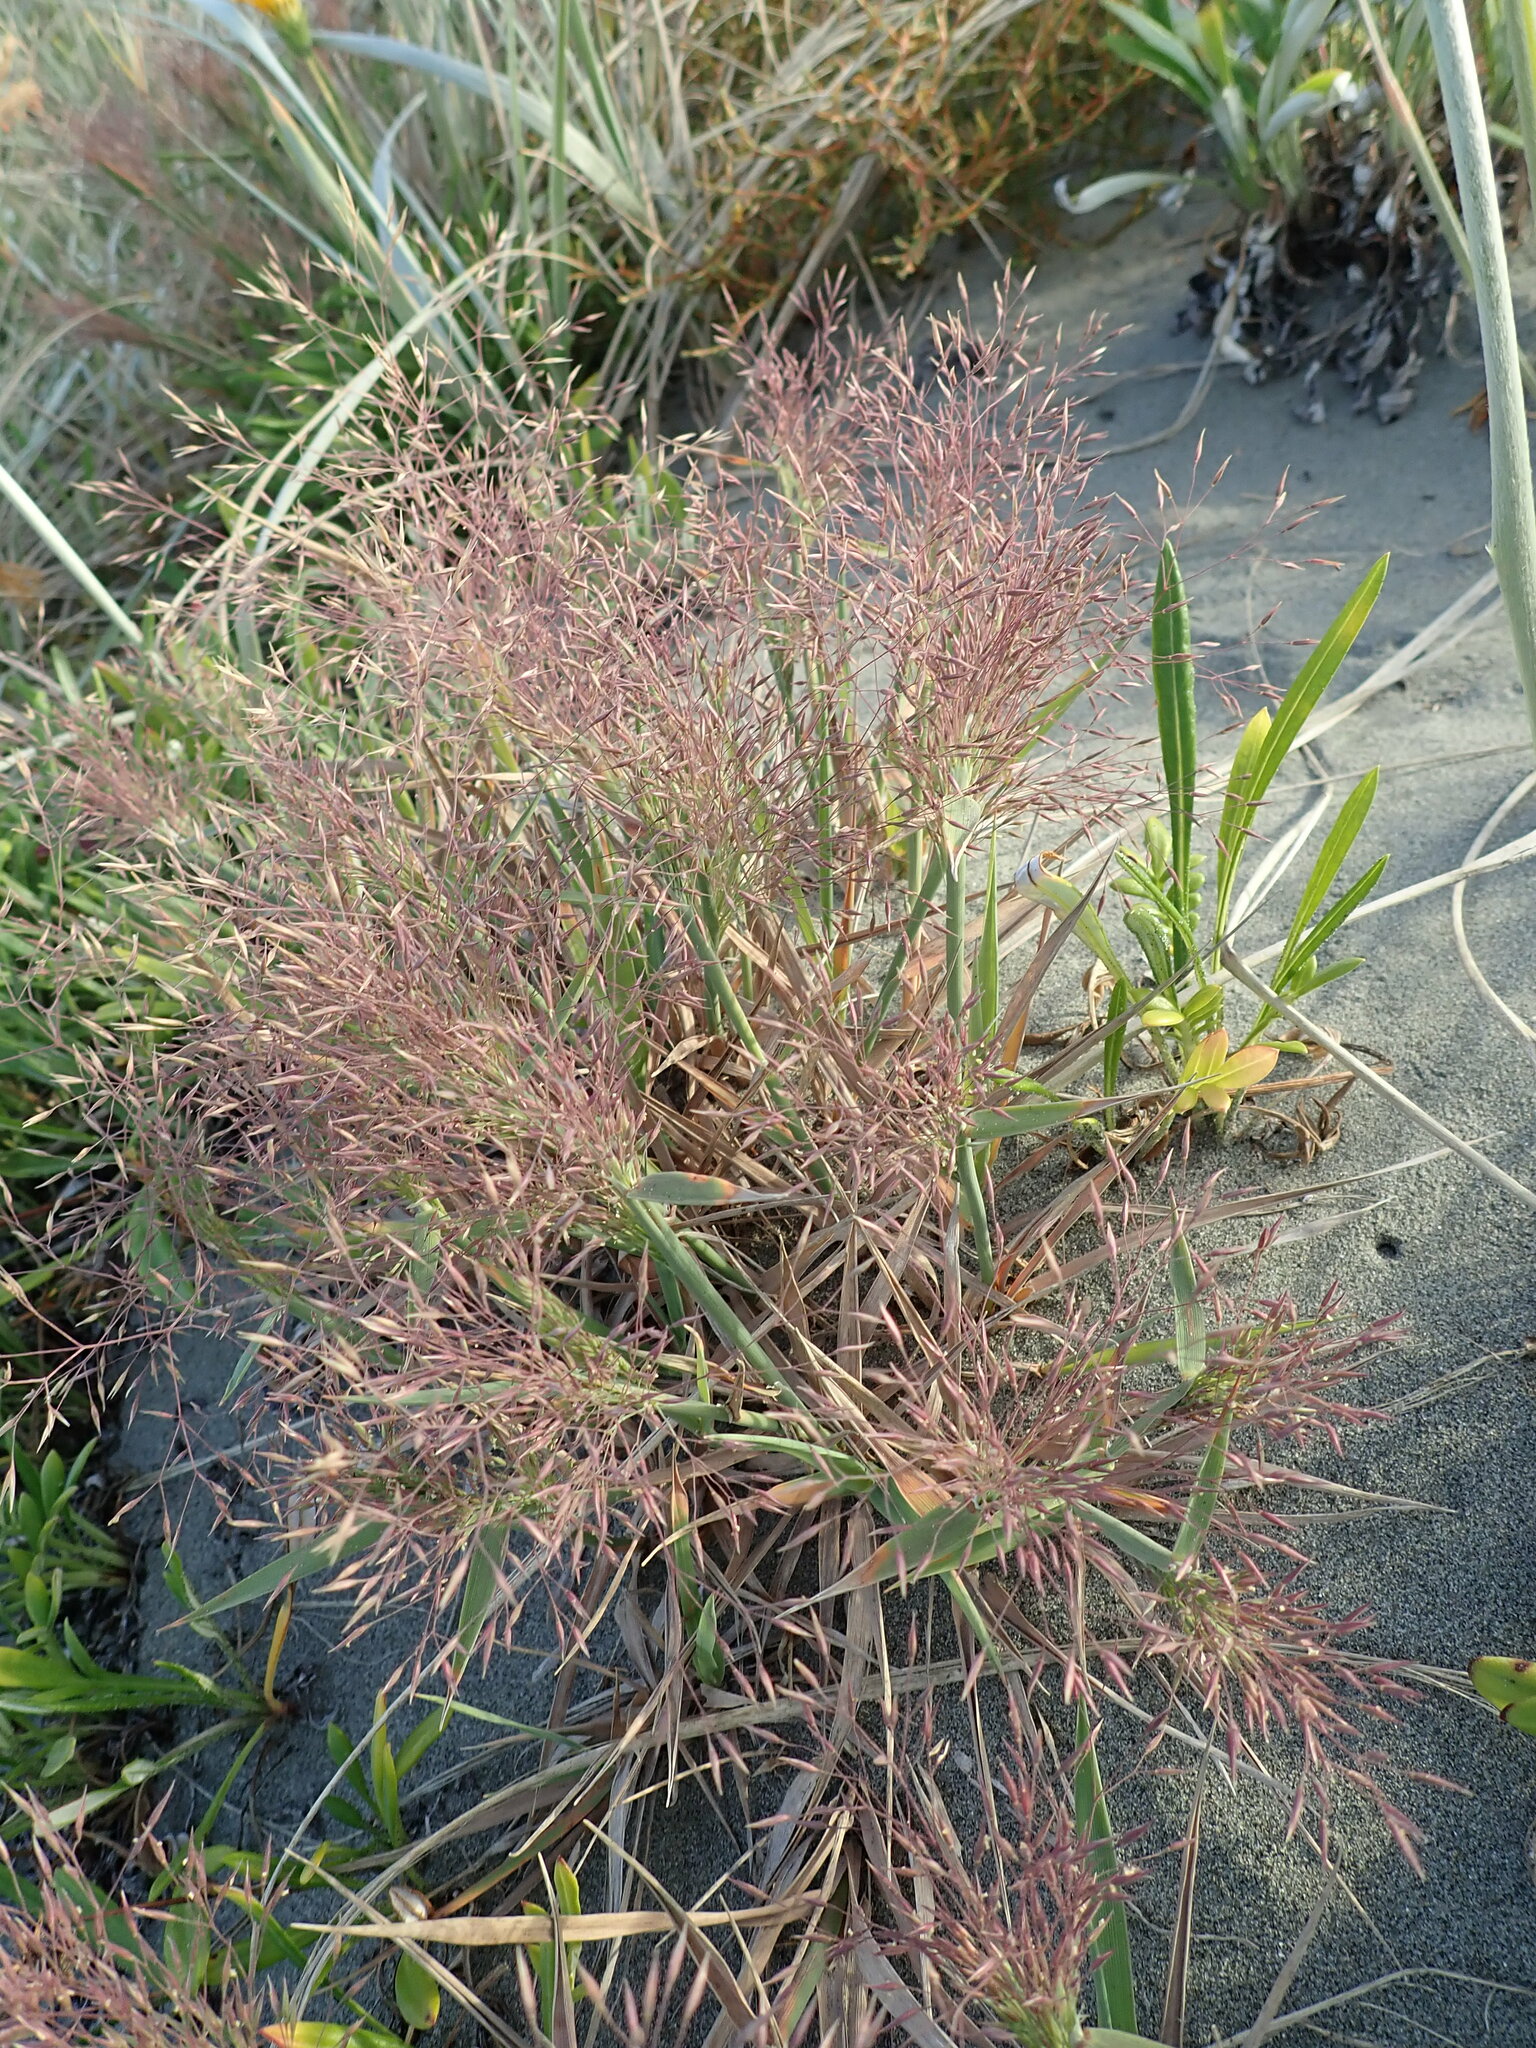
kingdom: Plantae
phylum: Tracheophyta
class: Liliopsida
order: Poales
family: Poaceae
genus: Lachnagrostis
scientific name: Lachnagrostis billardierei
